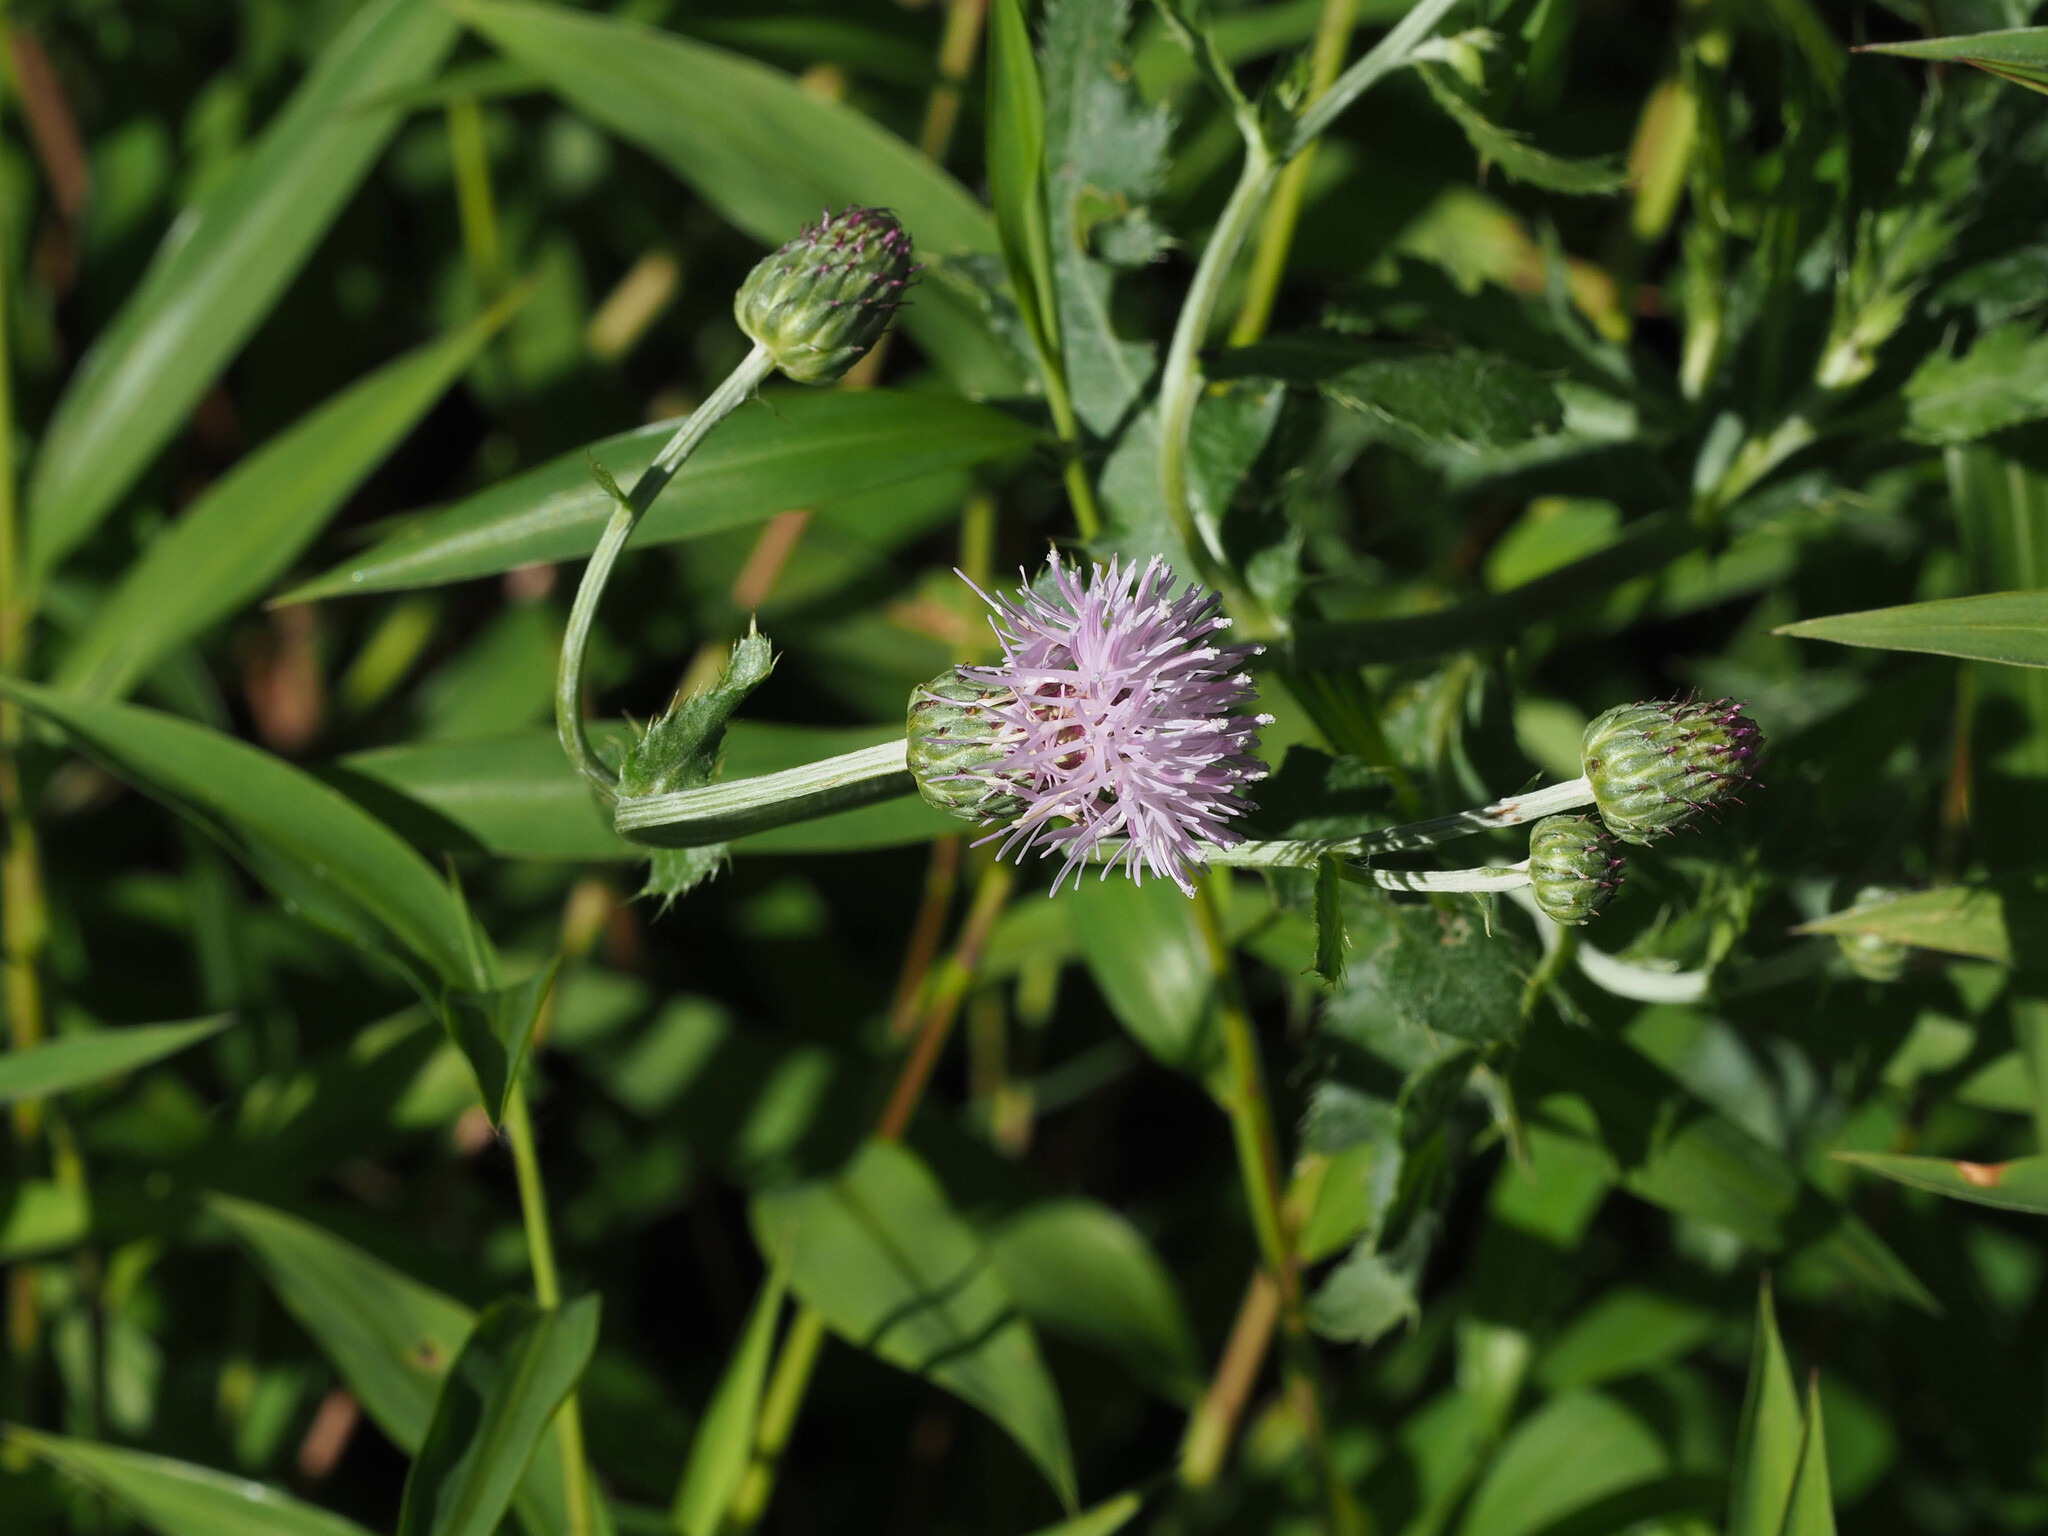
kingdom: Plantae
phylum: Tracheophyta
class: Magnoliopsida
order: Asterales
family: Asteraceae
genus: Cirsium
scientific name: Cirsium arvense
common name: Creeping thistle
